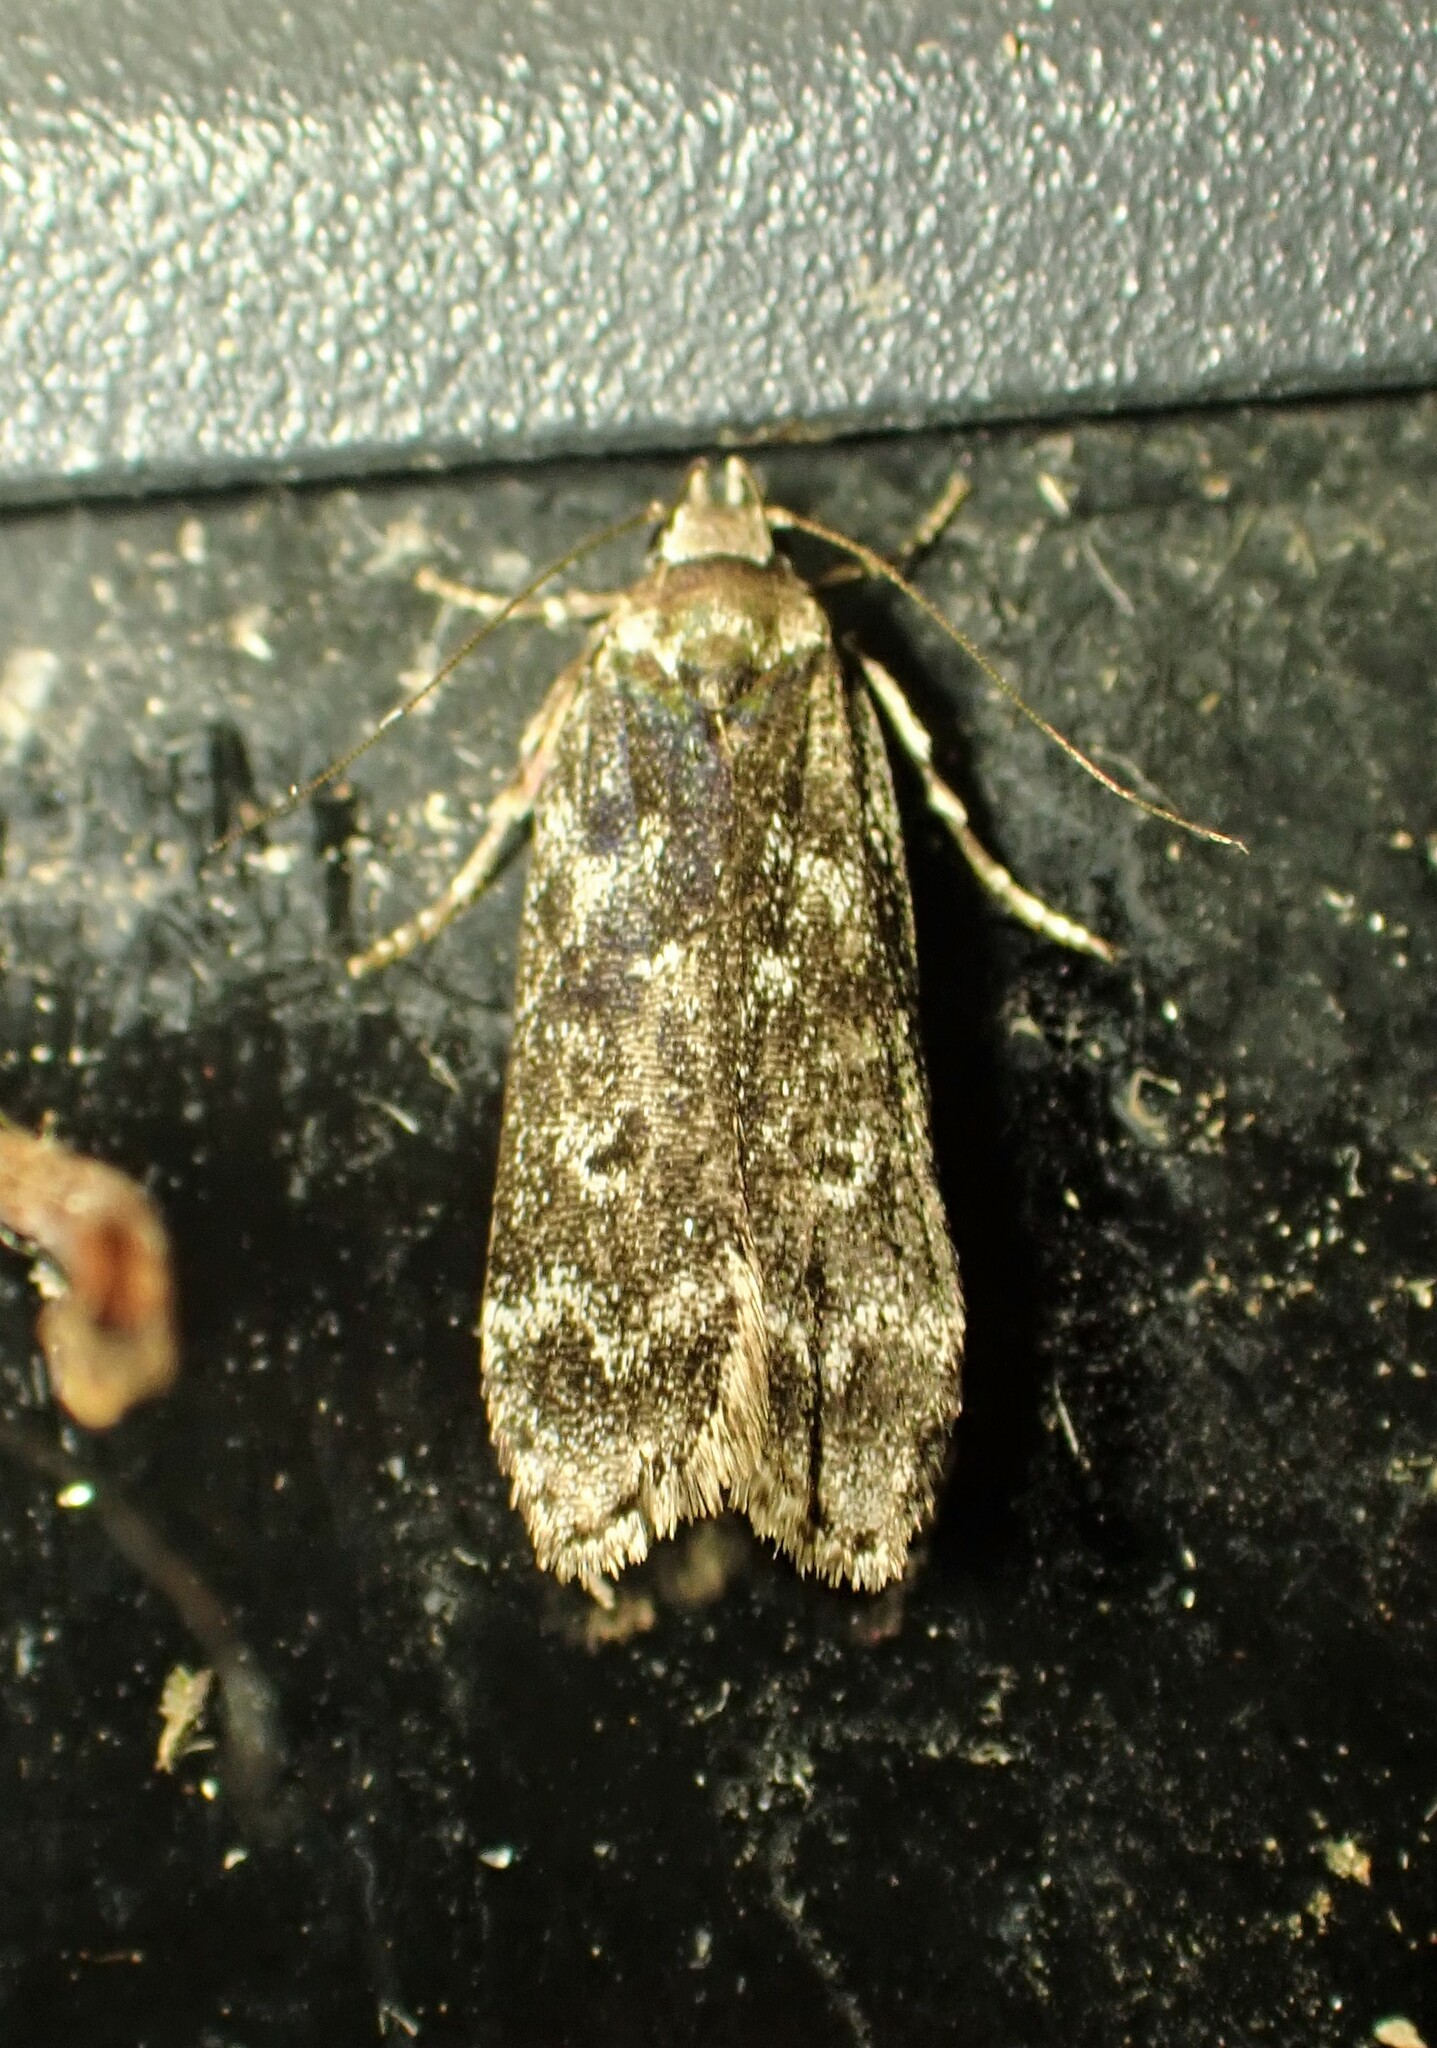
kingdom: Animalia
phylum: Arthropoda
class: Insecta
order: Lepidoptera
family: Gelechiidae
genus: Anacampsis
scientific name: Anacampsis niveopulvella
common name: Pale-headed aspen leafroller moth
